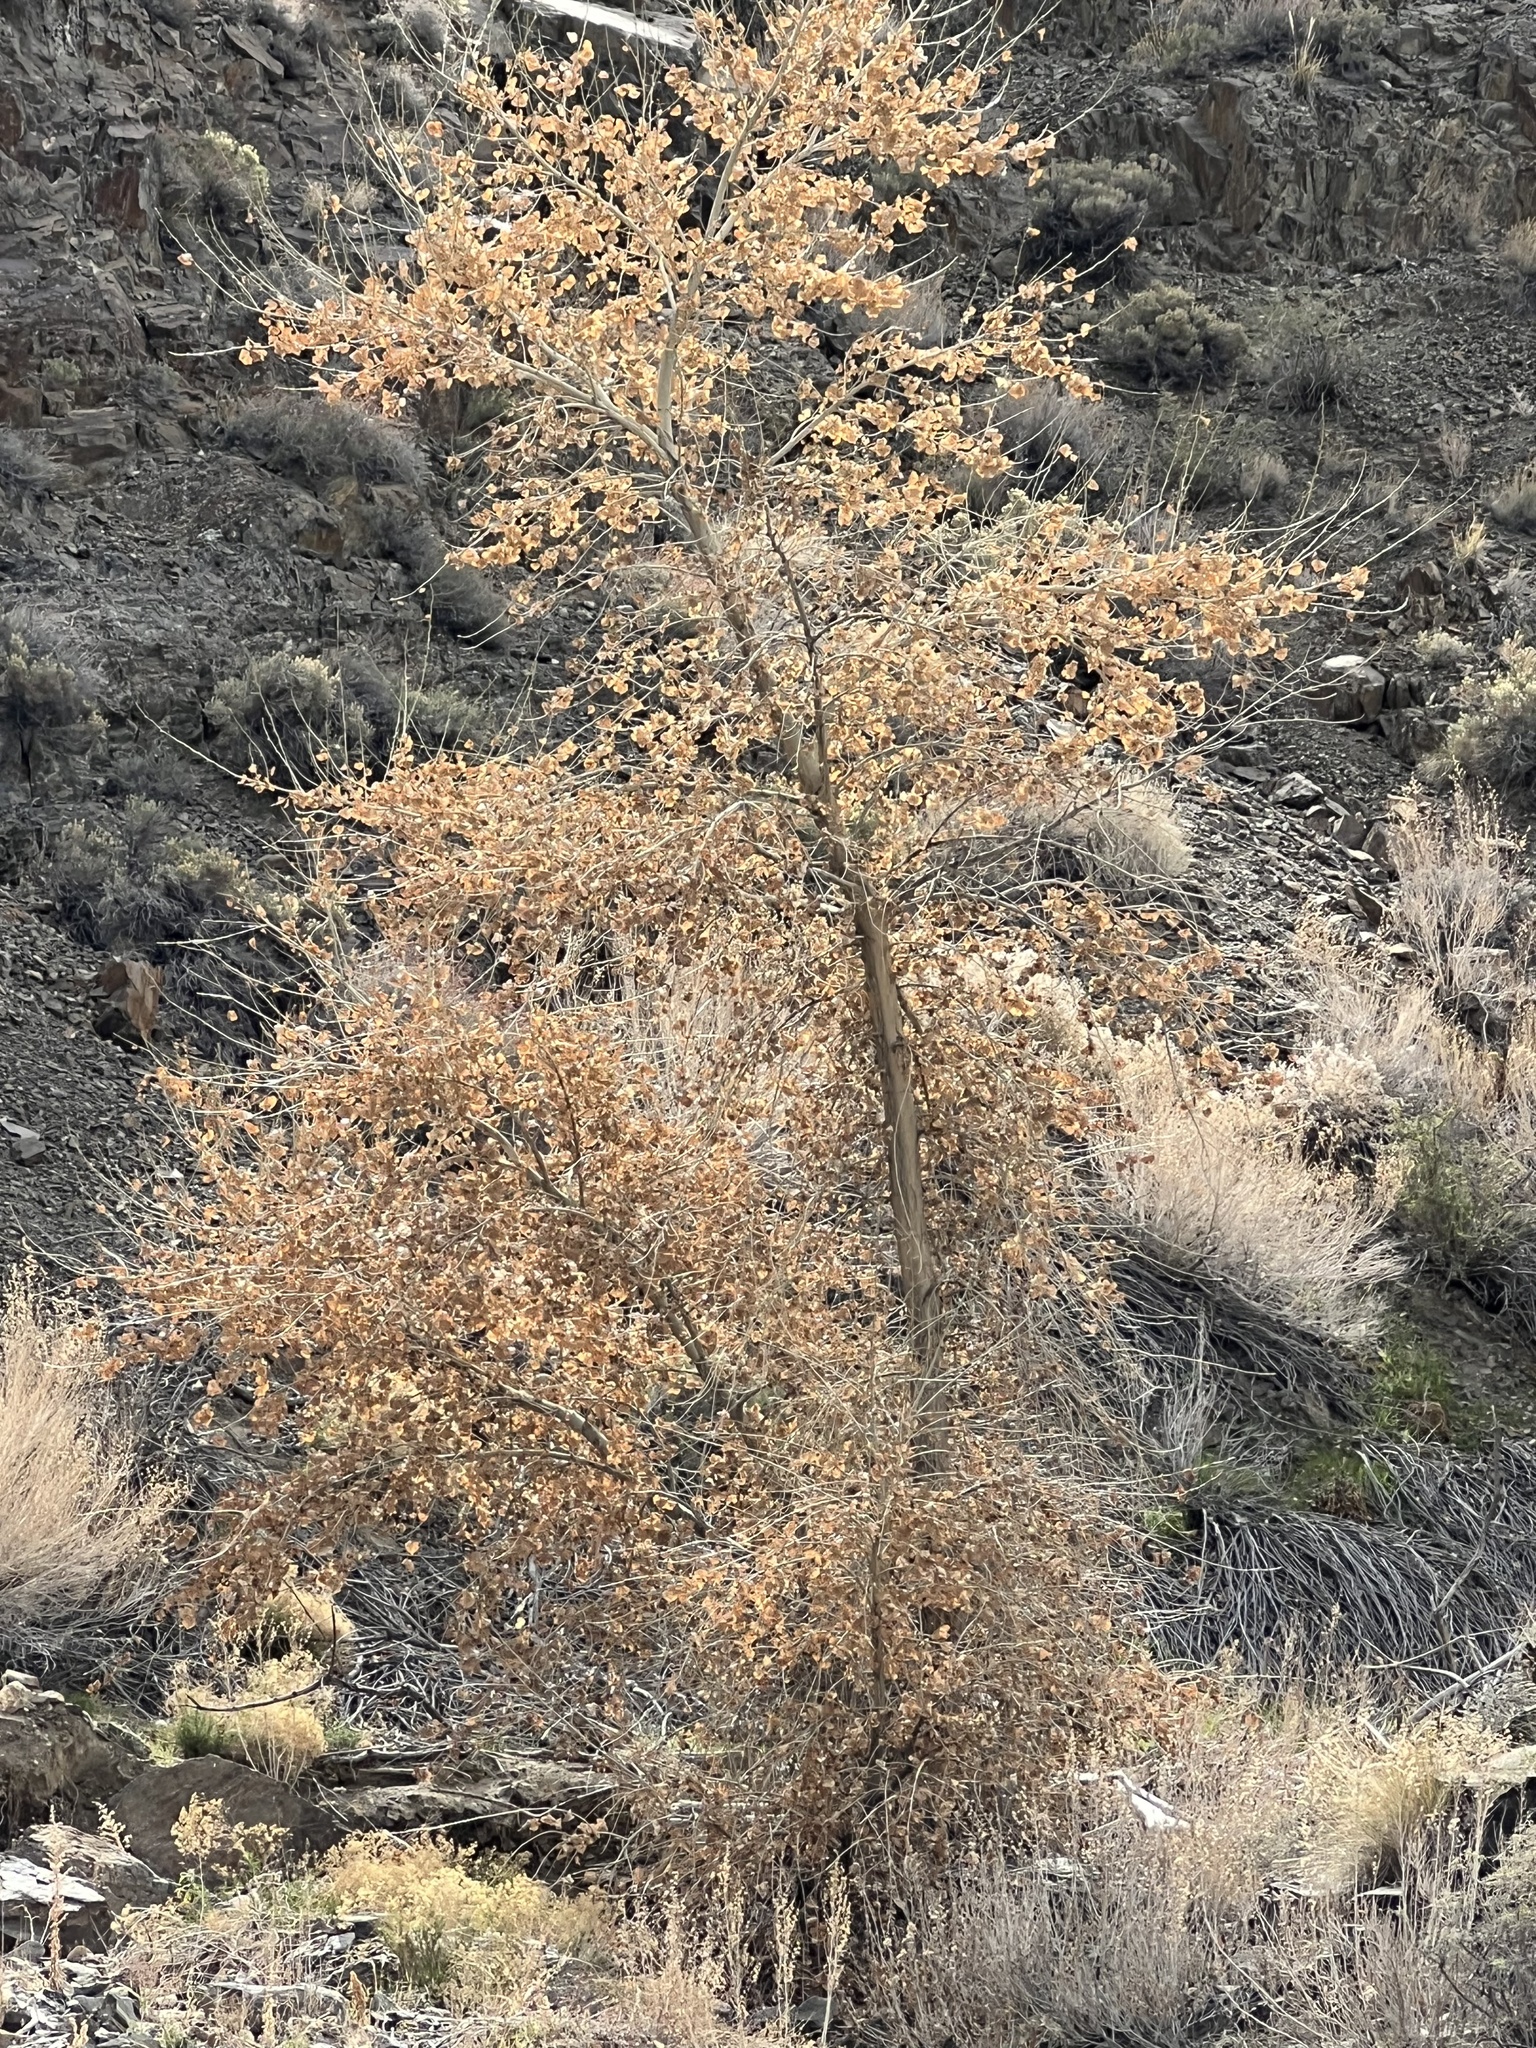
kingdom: Plantae
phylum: Tracheophyta
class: Magnoliopsida
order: Malpighiales
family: Salicaceae
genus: Populus
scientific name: Populus fremontii
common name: Fremont's cottonwood
